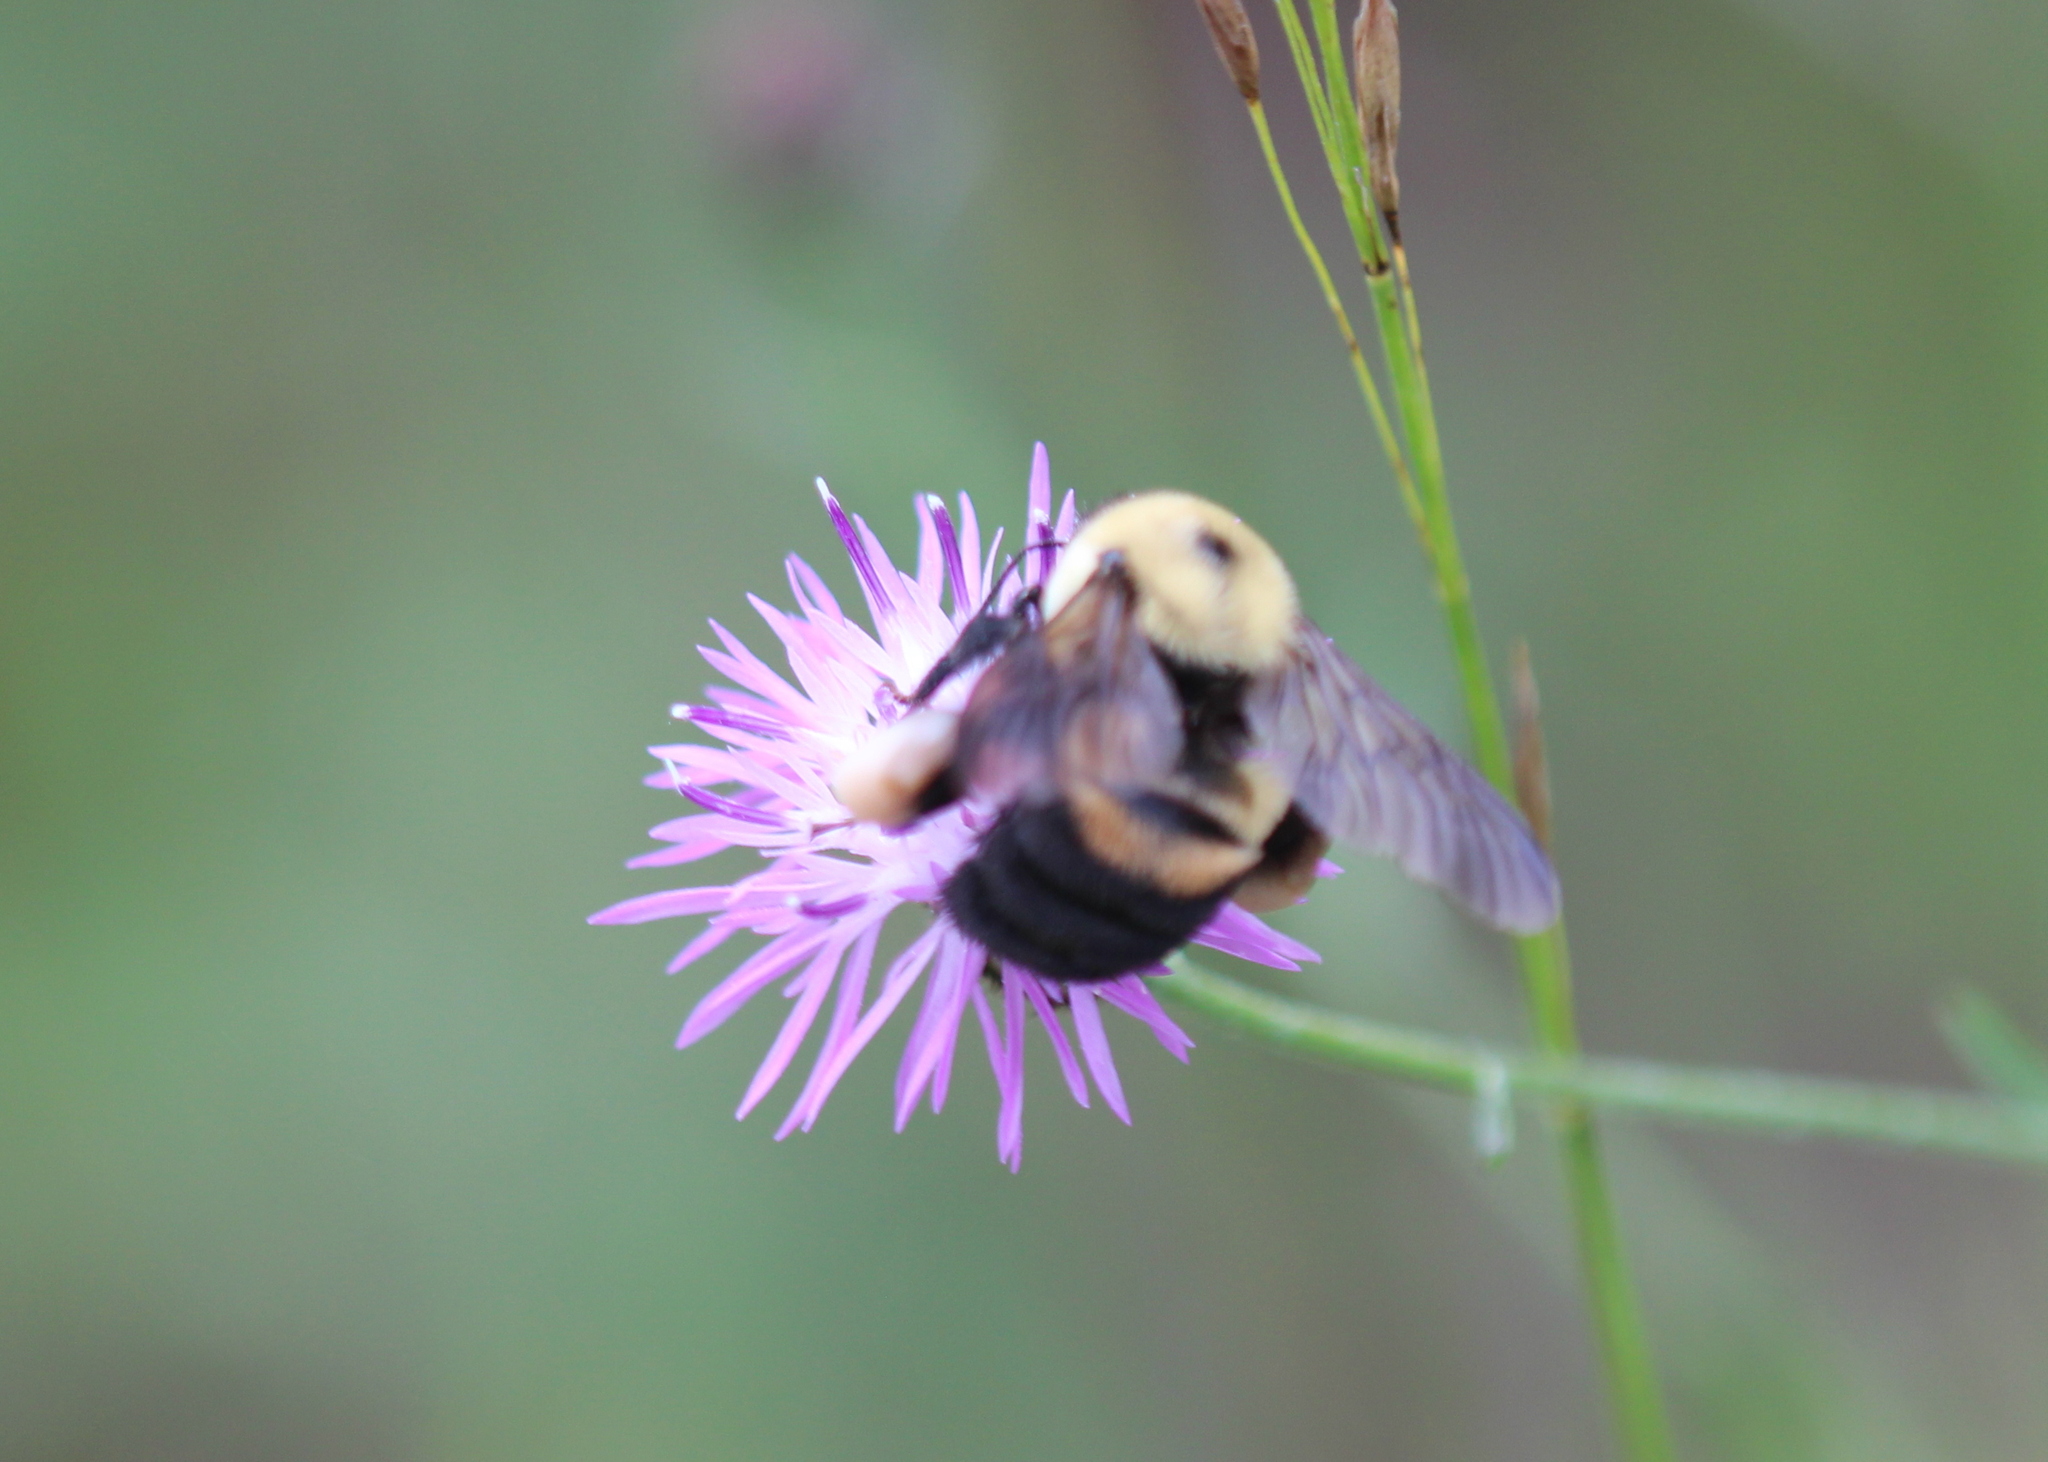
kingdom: Animalia
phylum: Arthropoda
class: Insecta
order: Hymenoptera
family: Apidae
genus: Bombus
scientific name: Bombus griseocollis
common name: Brown-belted bumble bee
